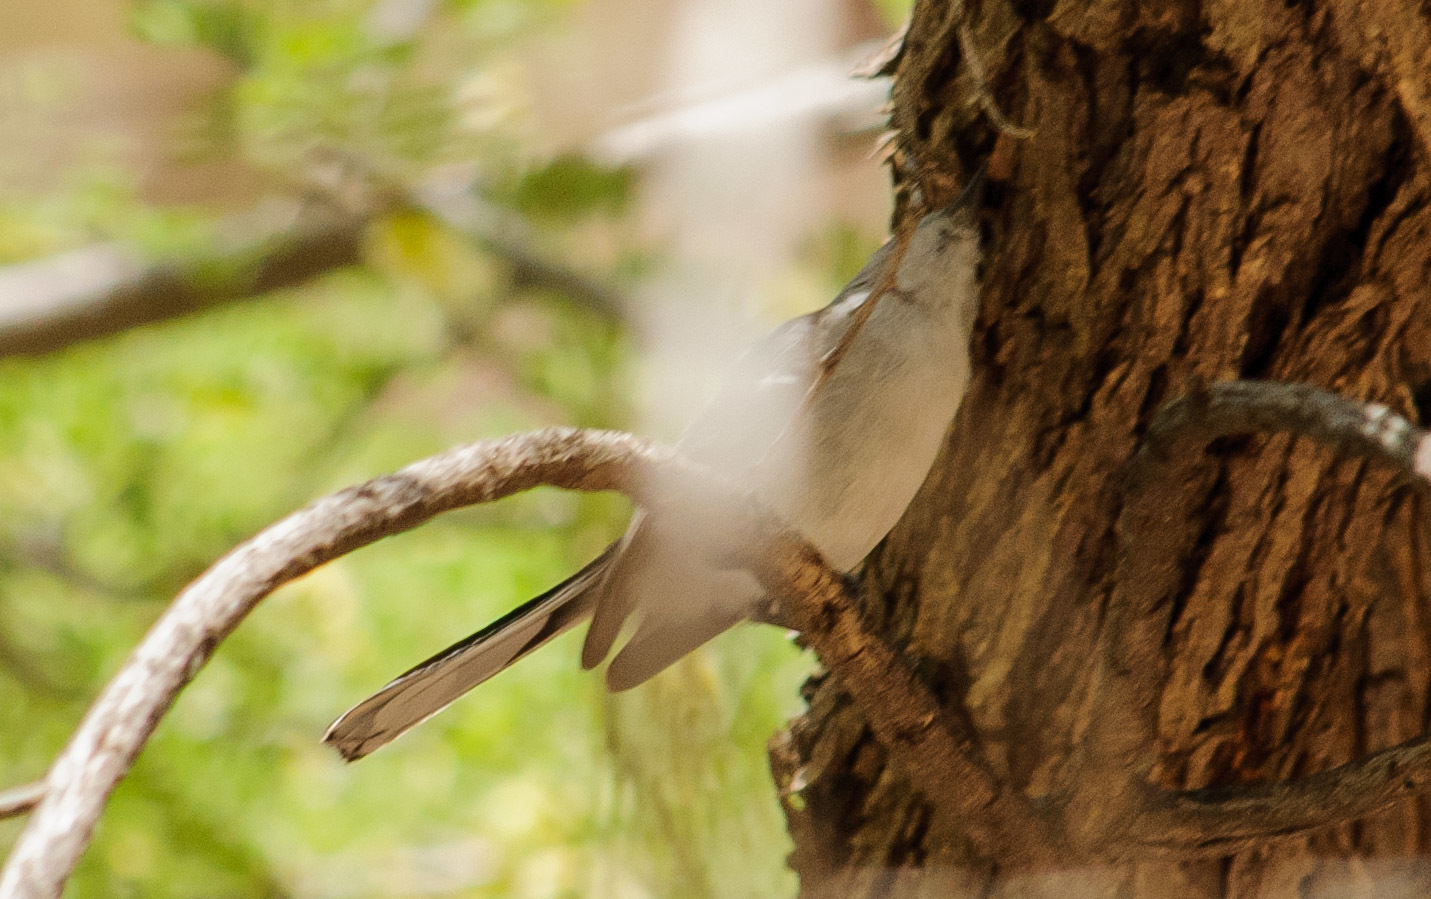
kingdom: Animalia
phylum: Chordata
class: Aves
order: Passeriformes
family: Polioptilidae
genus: Polioptila
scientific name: Polioptila caerulea
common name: Blue-gray gnatcatcher
